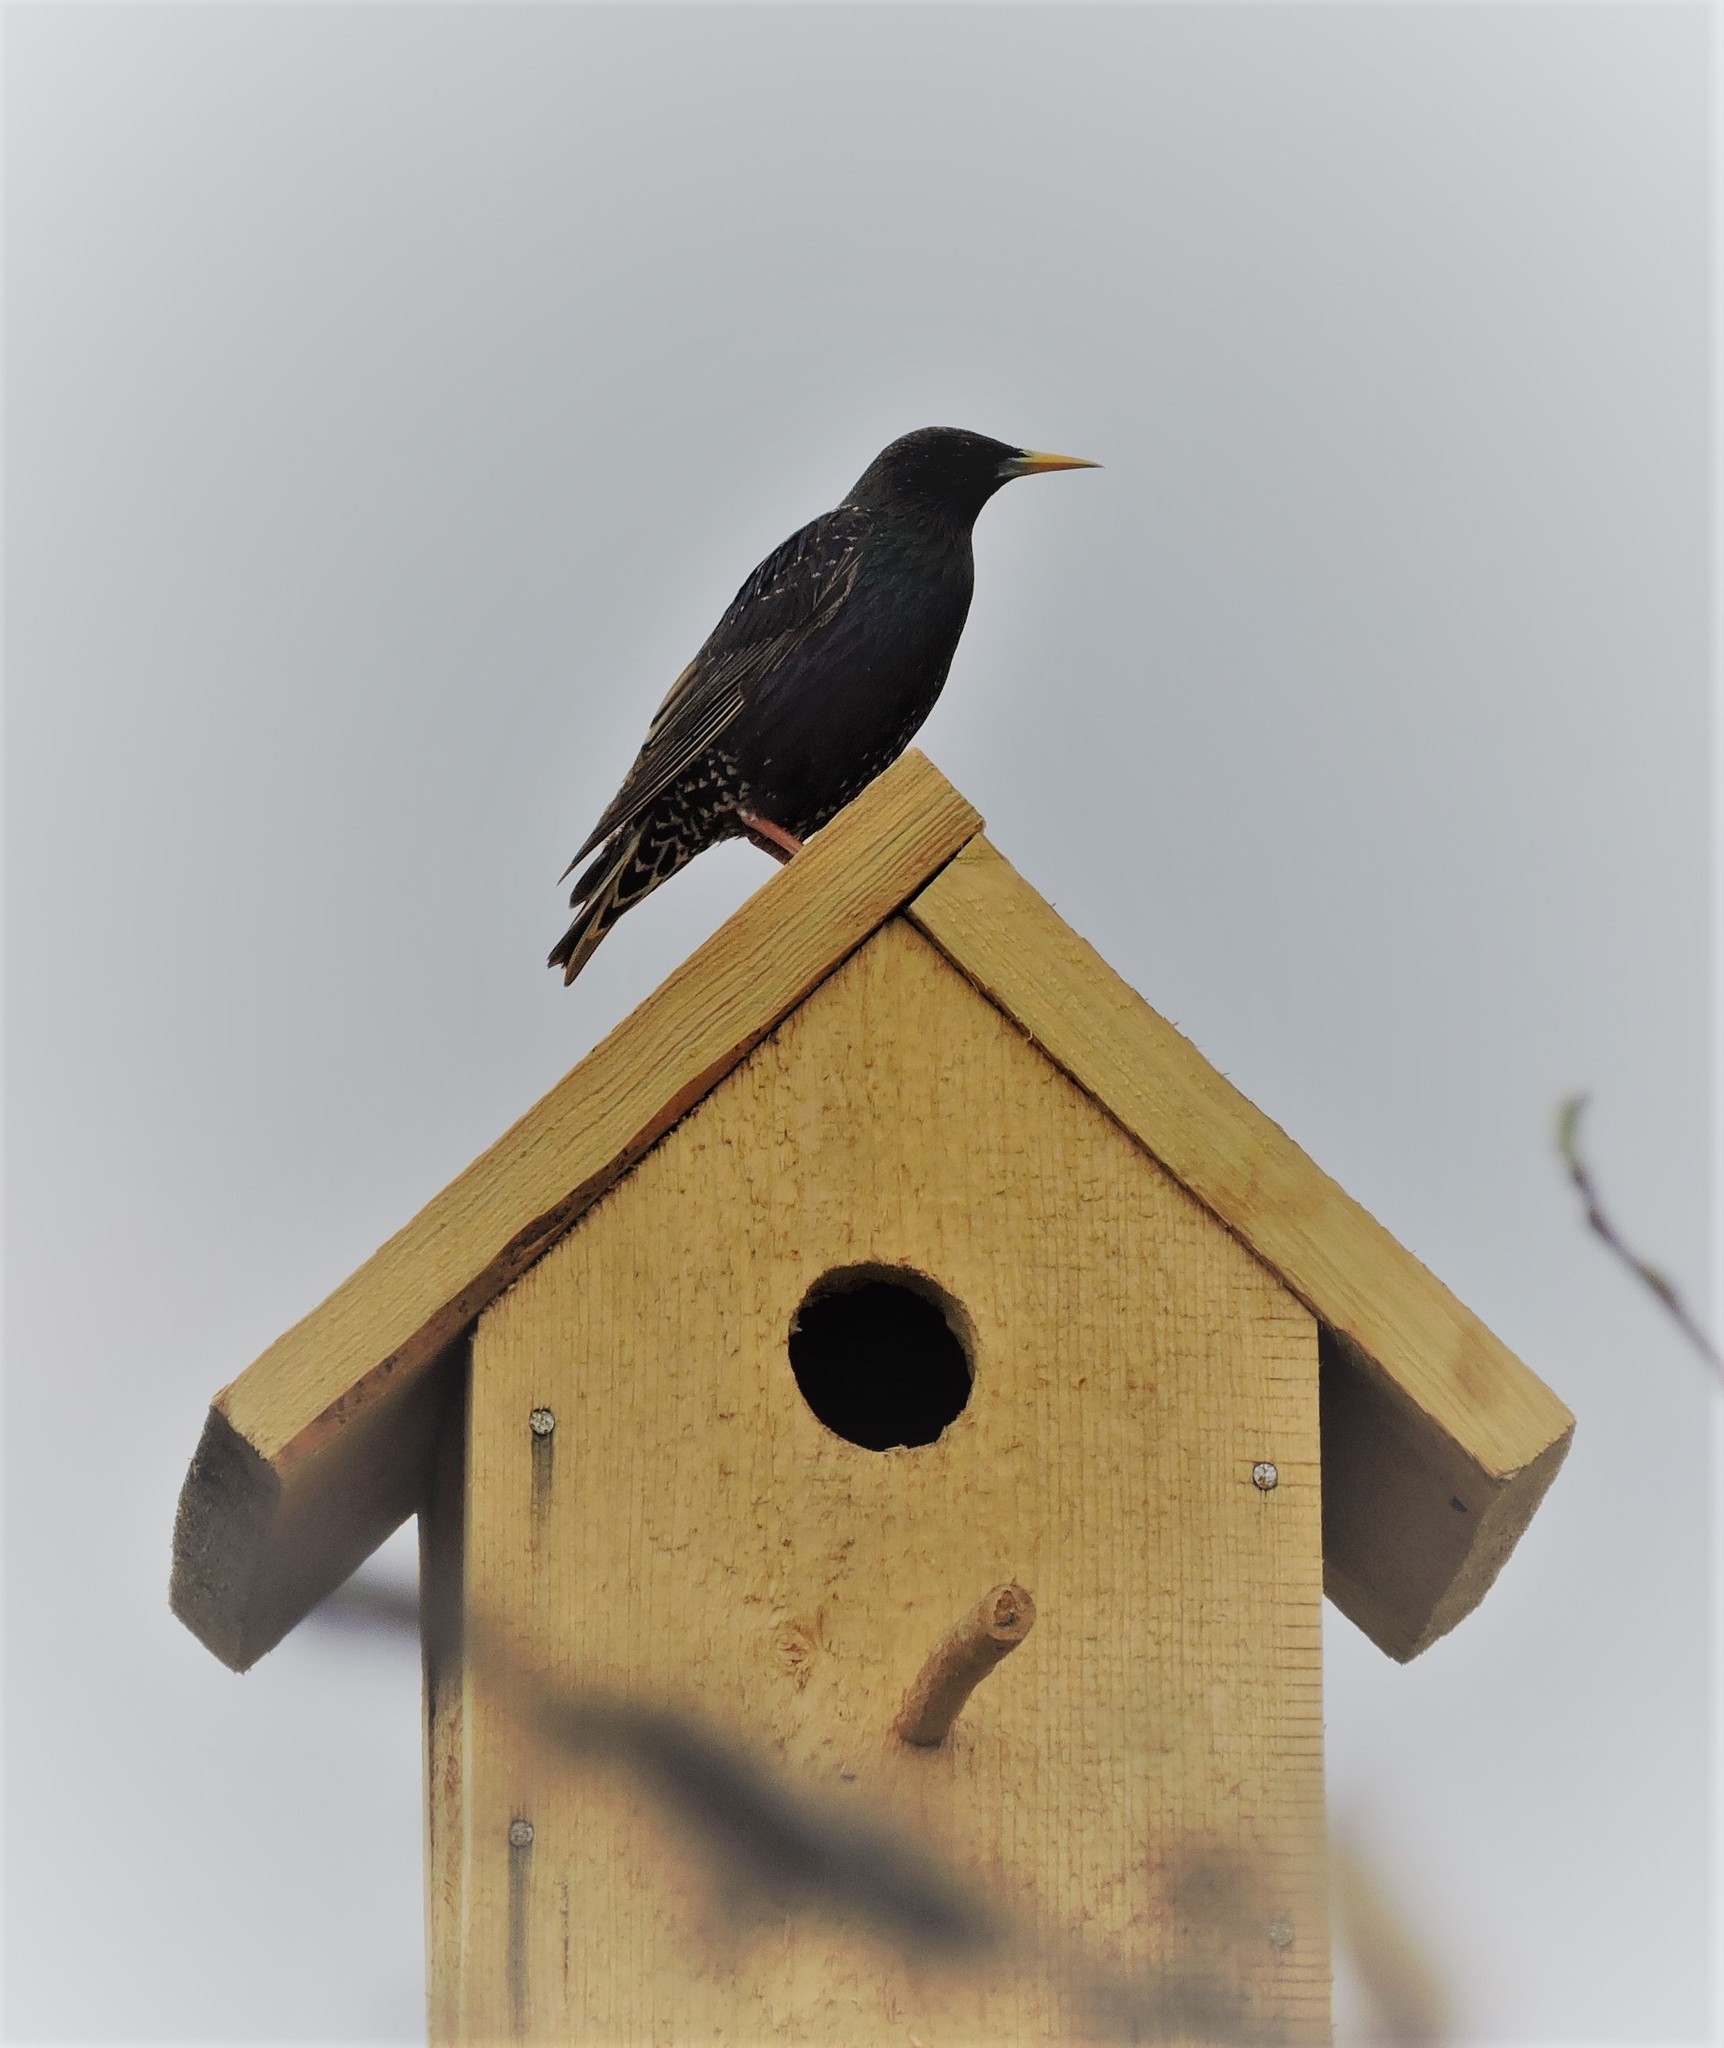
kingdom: Animalia
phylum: Chordata
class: Aves
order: Passeriformes
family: Sturnidae
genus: Sturnus
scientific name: Sturnus vulgaris
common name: Common starling
